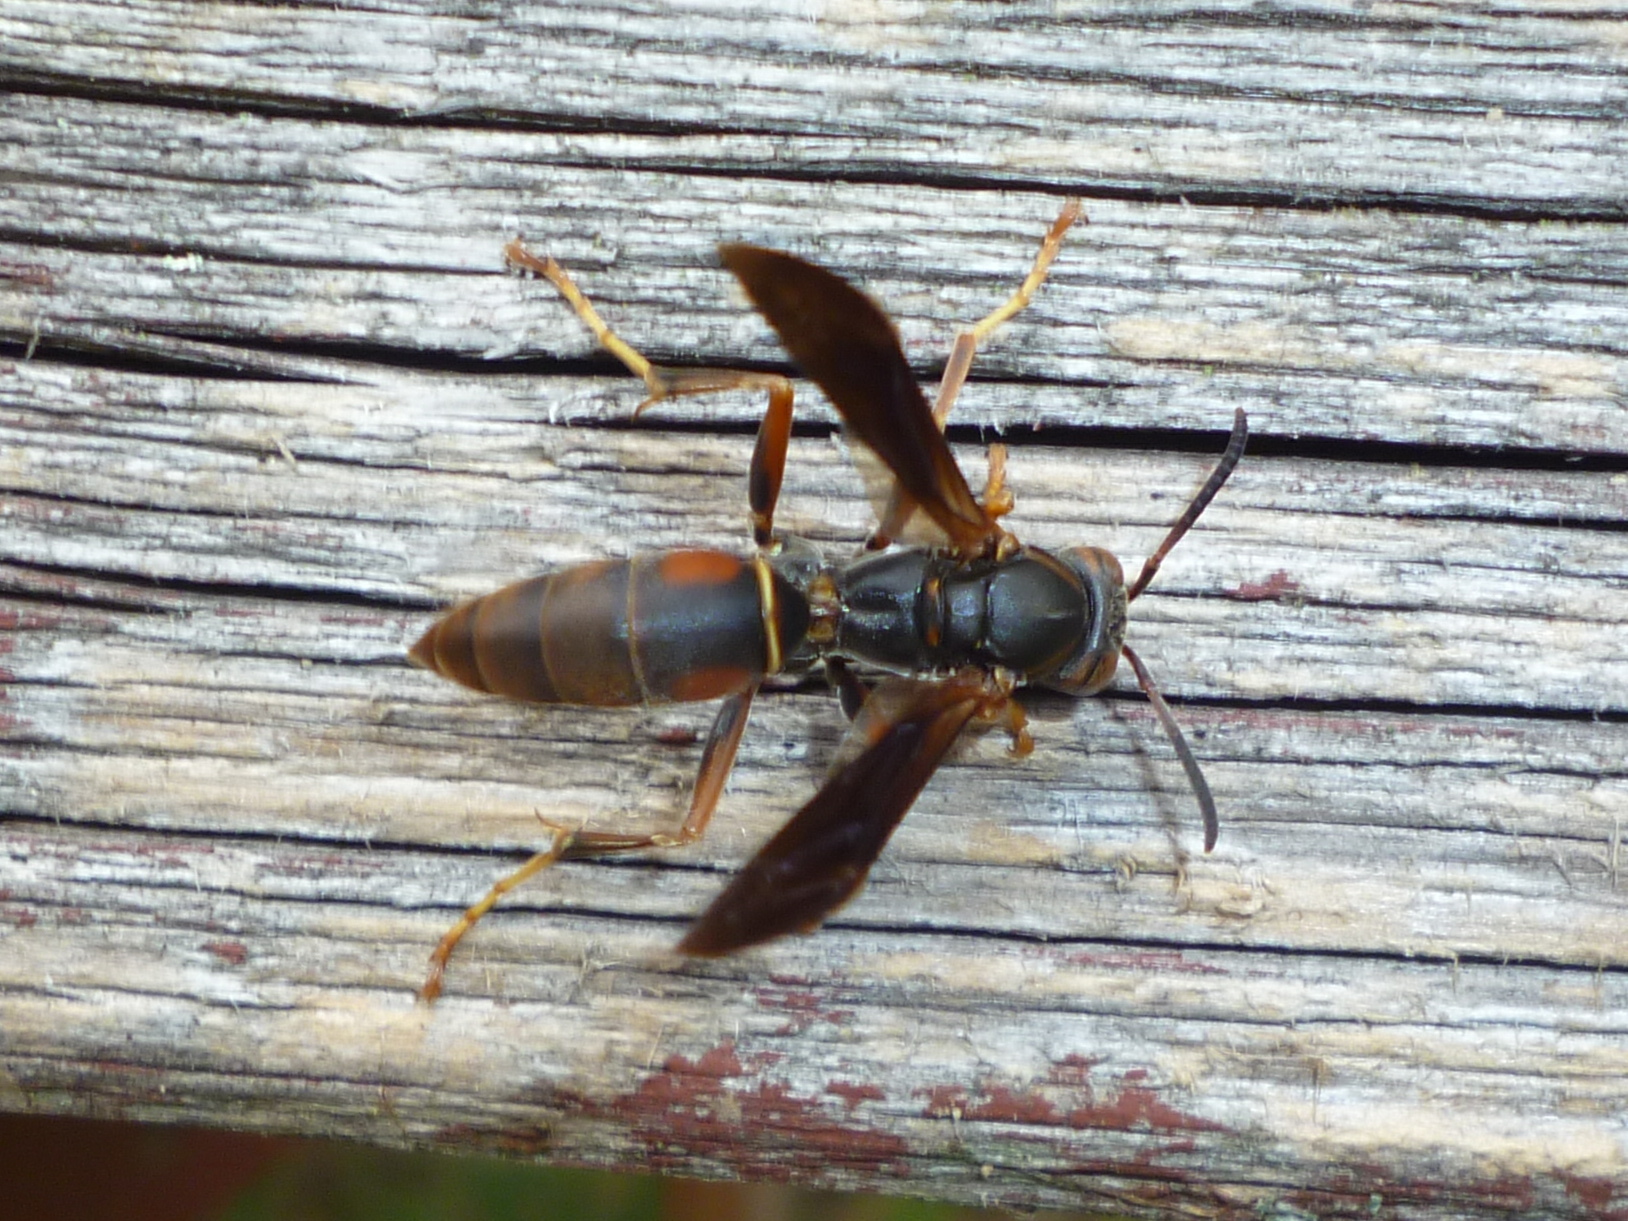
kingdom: Animalia
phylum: Arthropoda
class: Insecta
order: Hymenoptera
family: Eumenidae
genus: Polistes
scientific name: Polistes fuscatus
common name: Dark paper wasp
